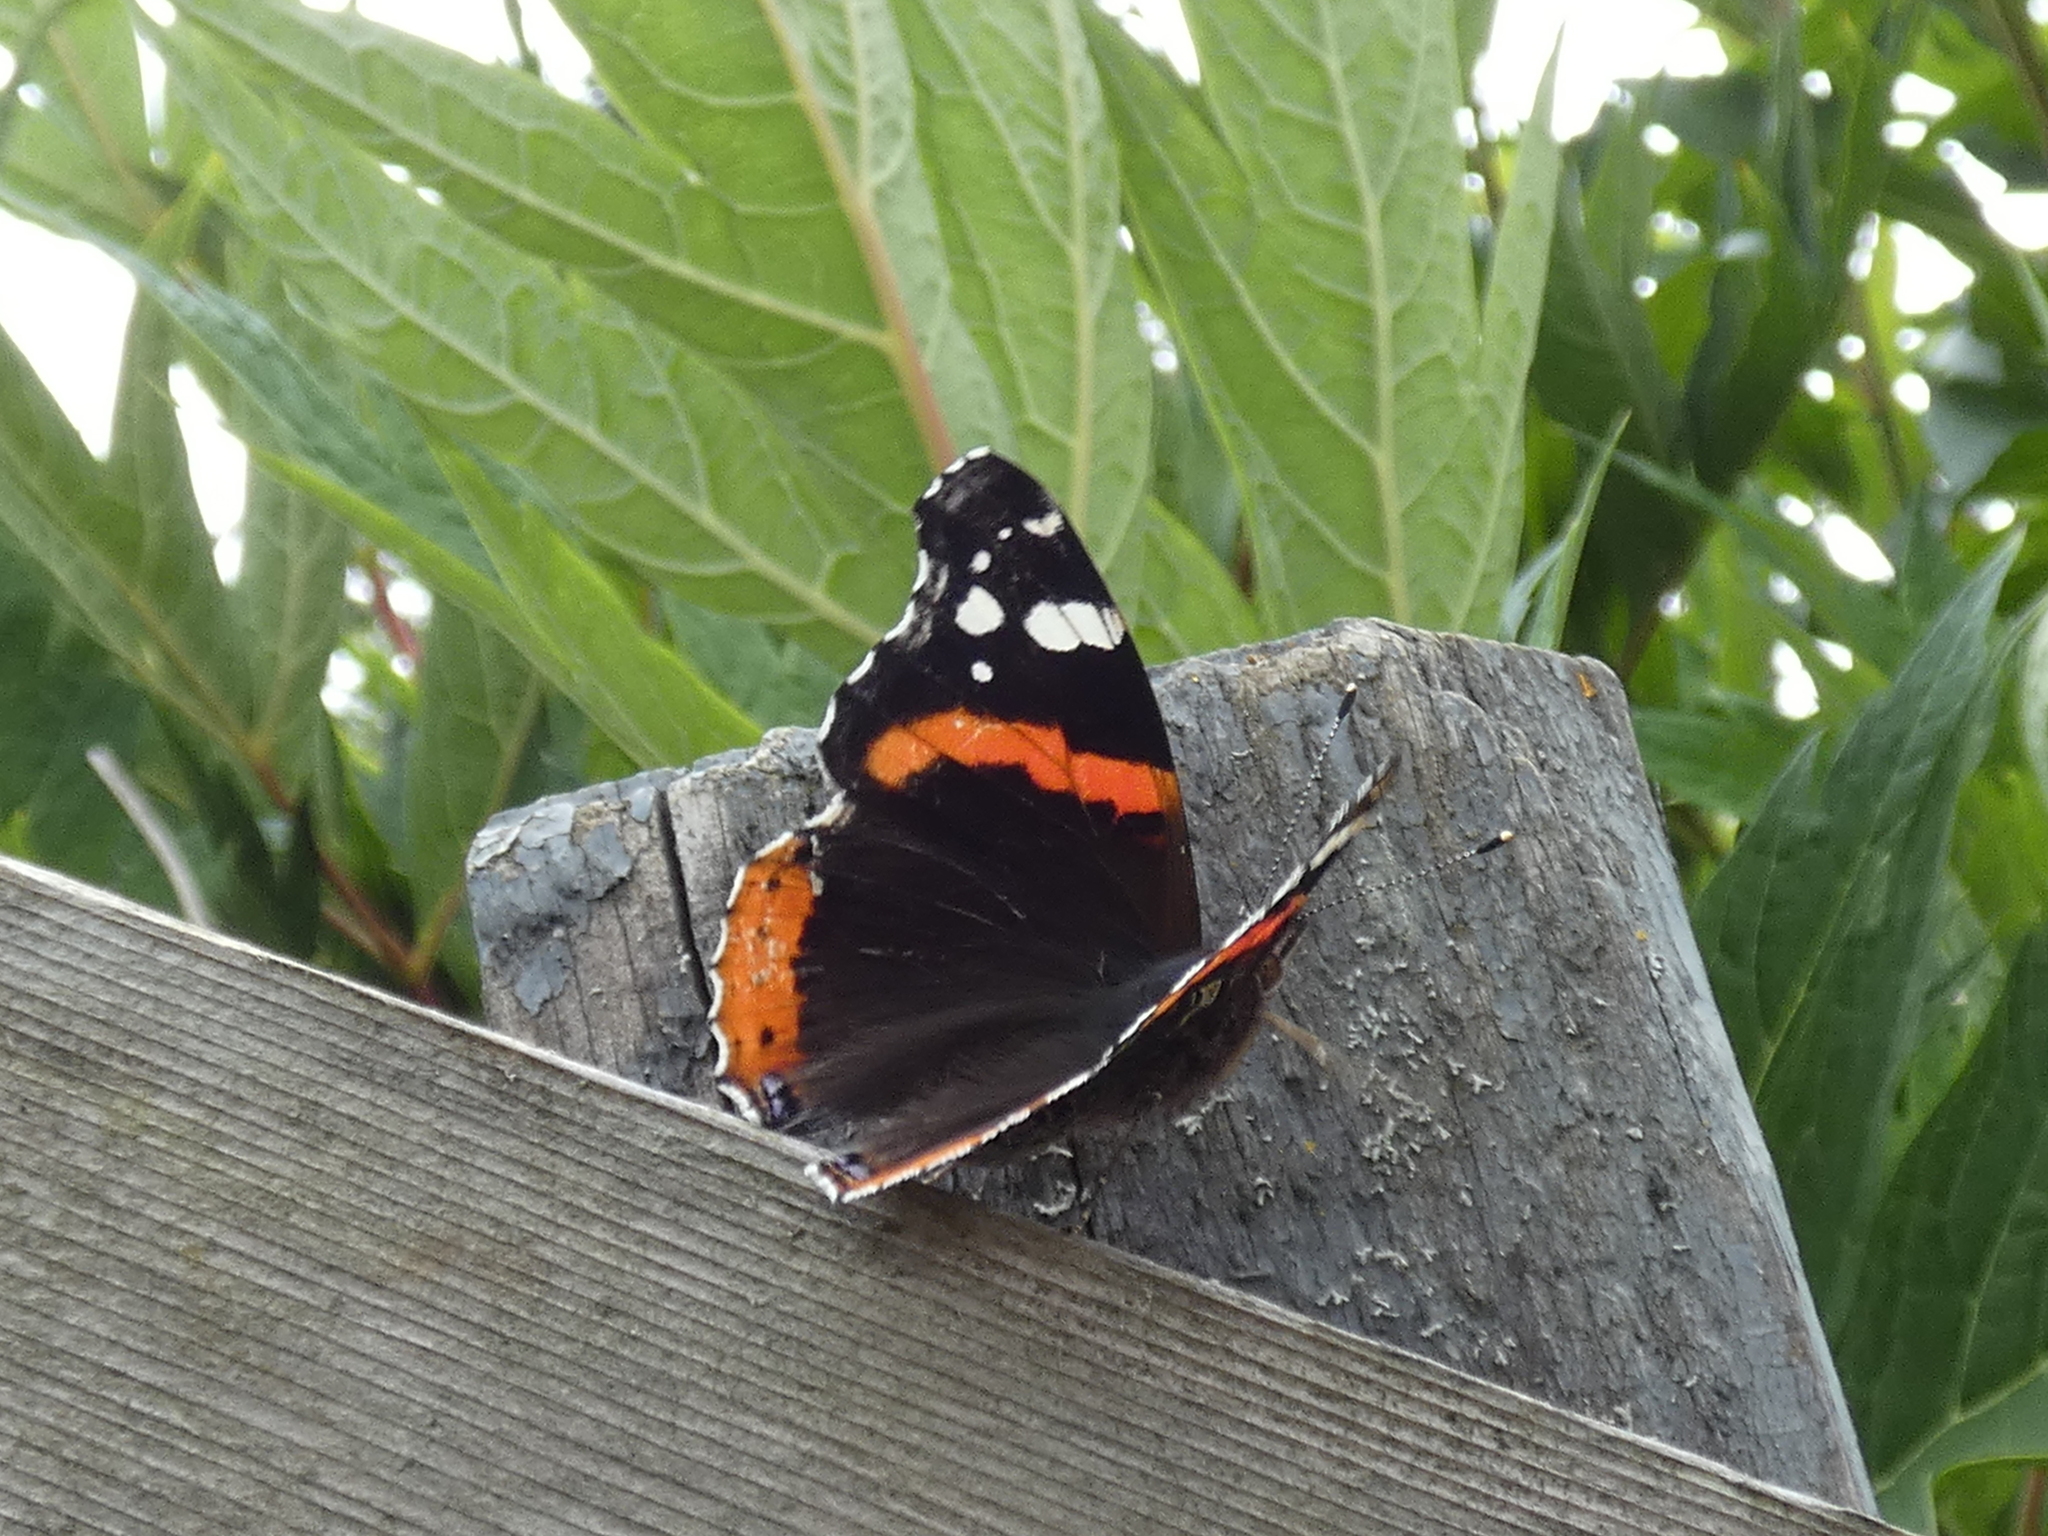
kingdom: Animalia
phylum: Arthropoda
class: Insecta
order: Lepidoptera
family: Nymphalidae
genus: Vanessa
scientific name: Vanessa atalanta
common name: Red admiral
